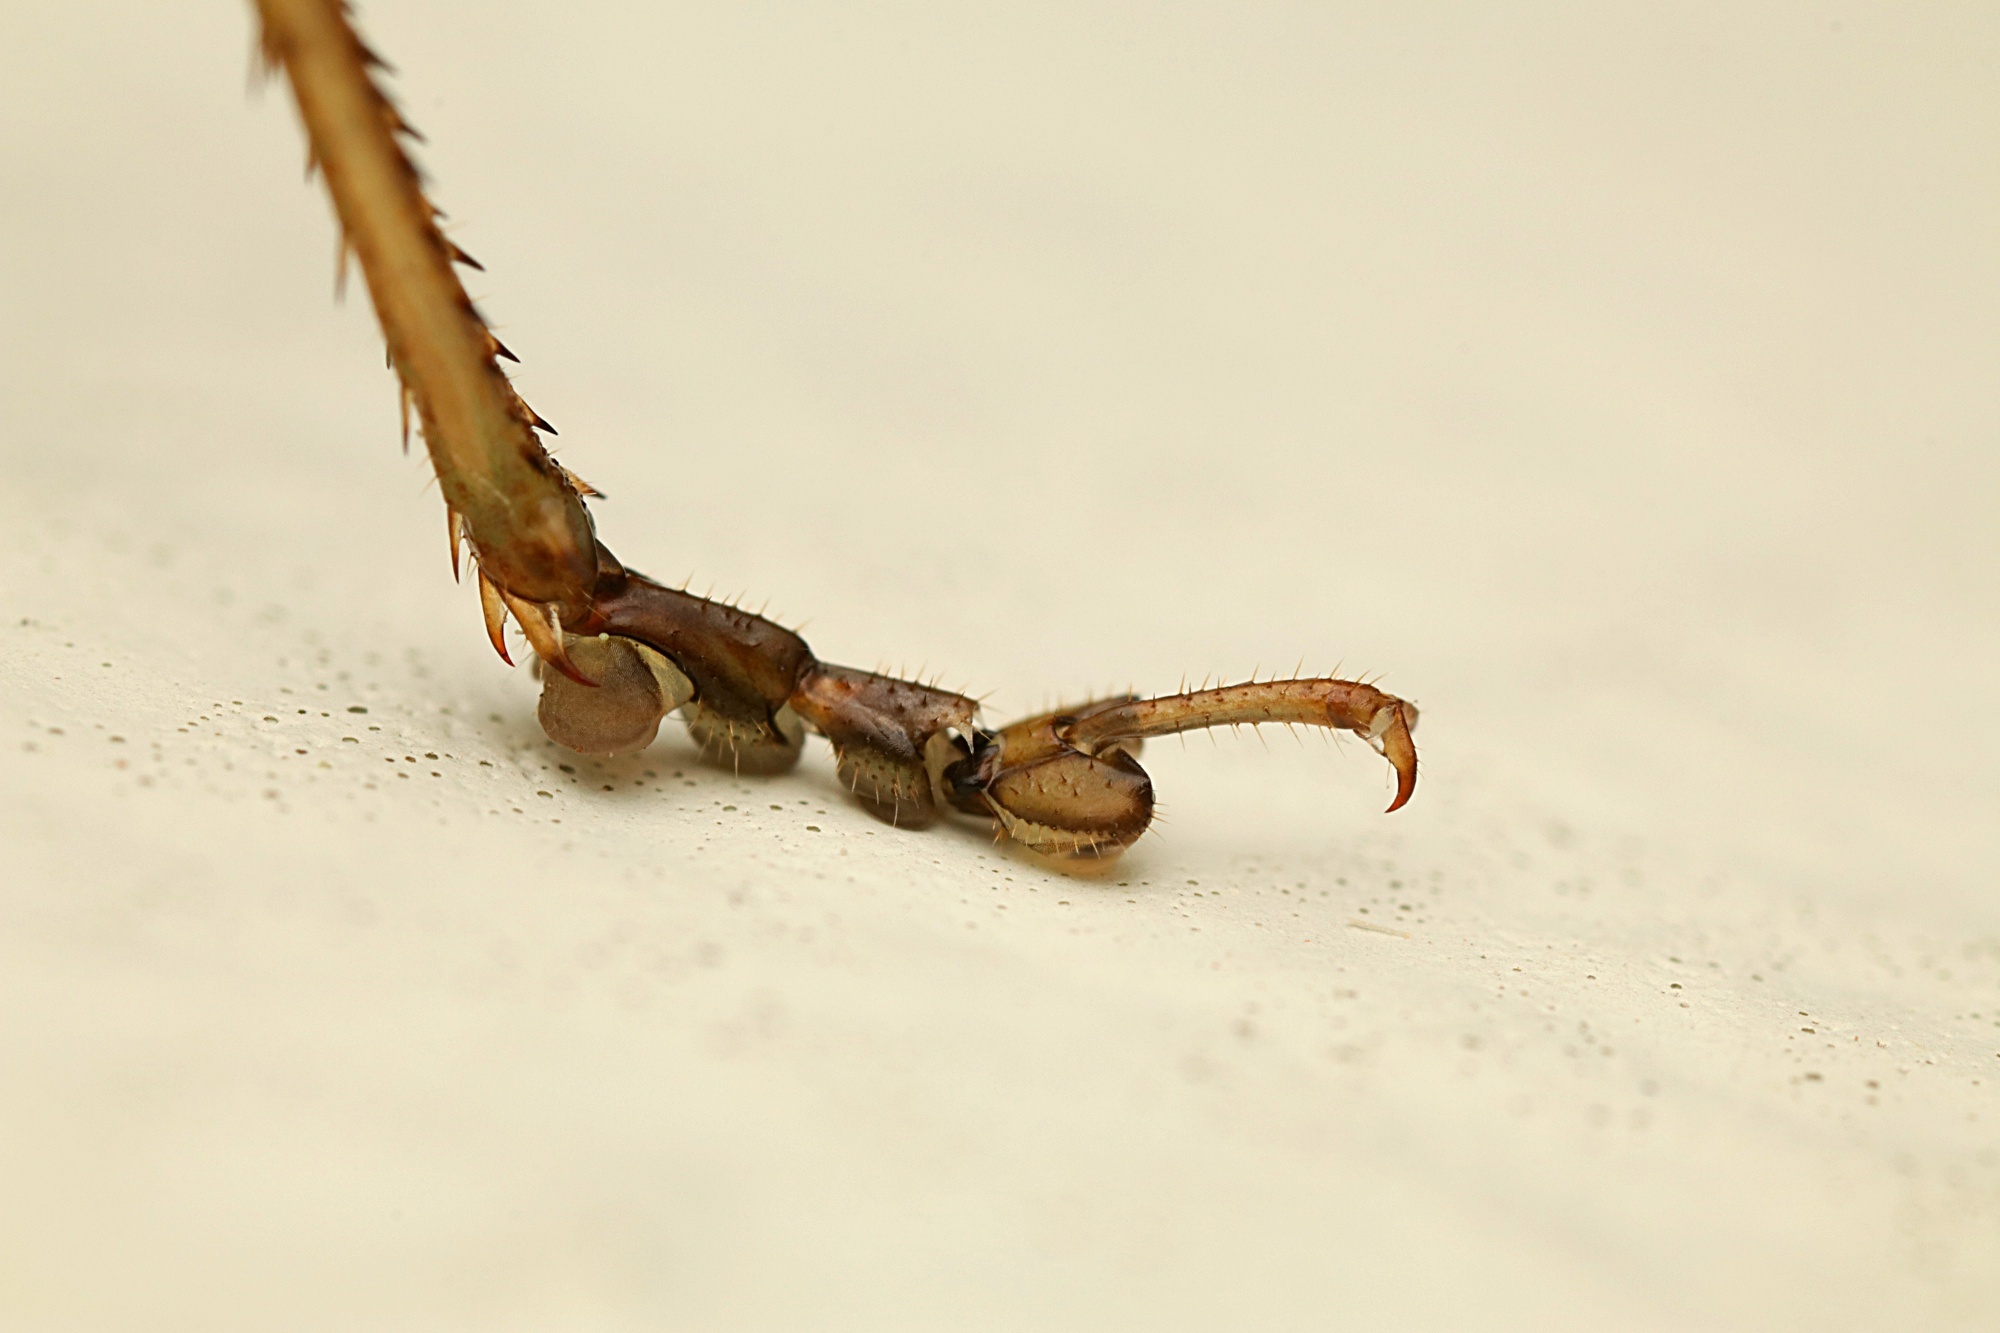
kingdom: Animalia
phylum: Arthropoda
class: Insecta
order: Orthoptera
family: Tettigoniidae
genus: Conocephalus
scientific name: Conocephalus semivittatus
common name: Blackish meadow katydid
